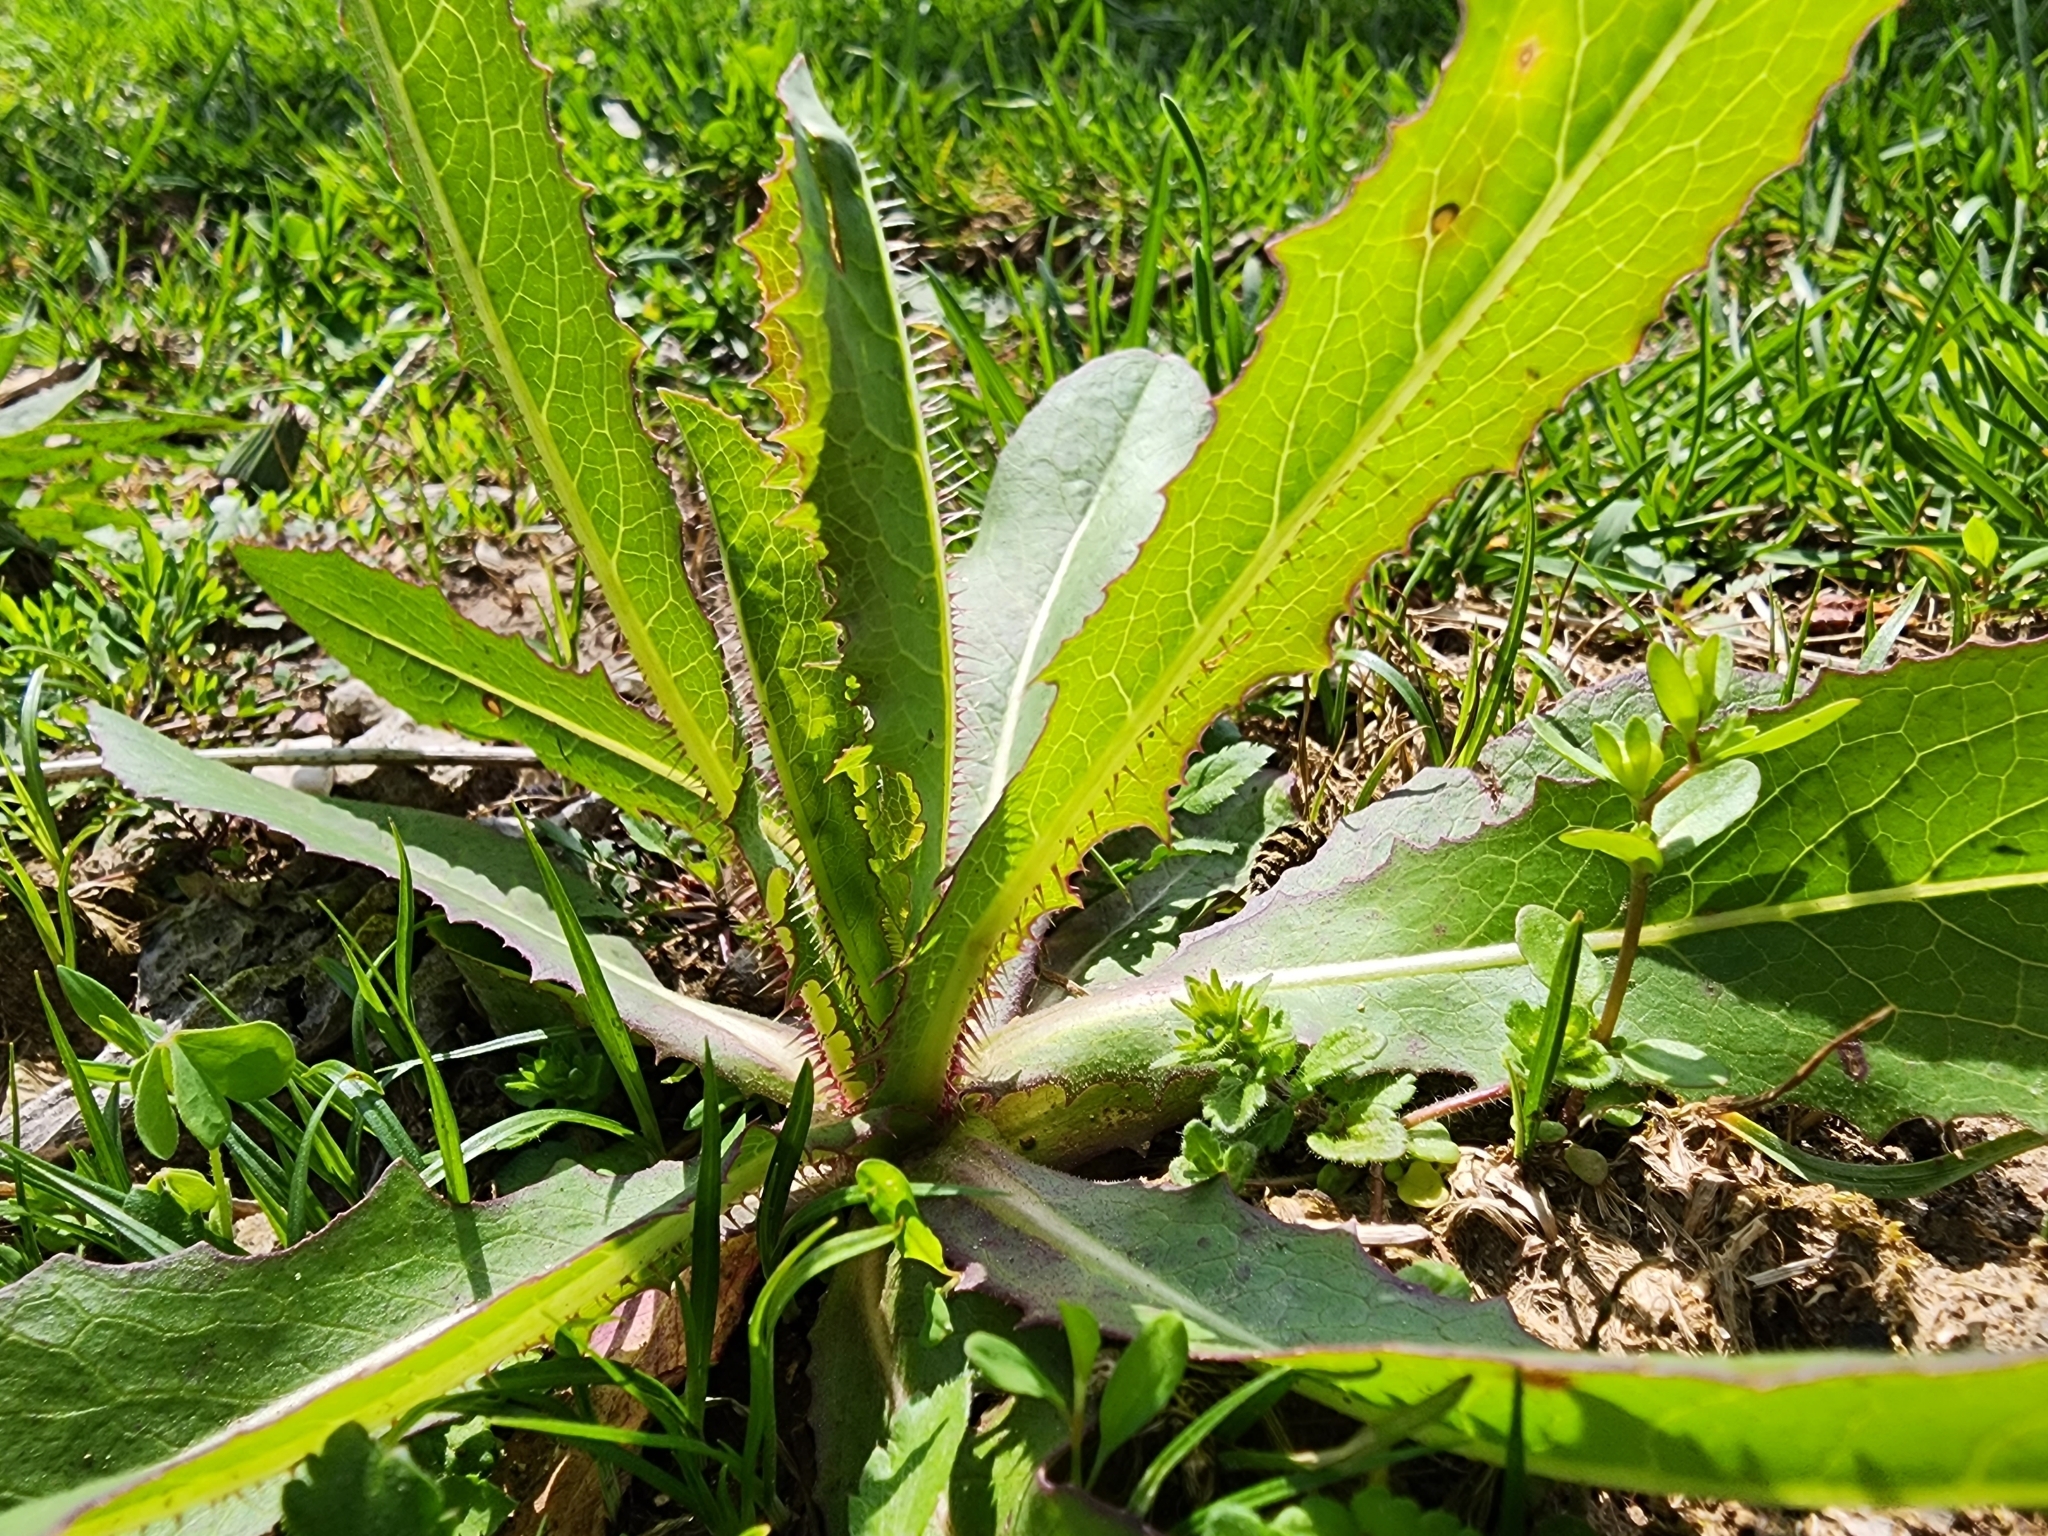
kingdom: Plantae
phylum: Tracheophyta
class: Magnoliopsida
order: Asterales
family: Asteraceae
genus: Lactuca
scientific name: Lactuca serriola
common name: Prickly lettuce
